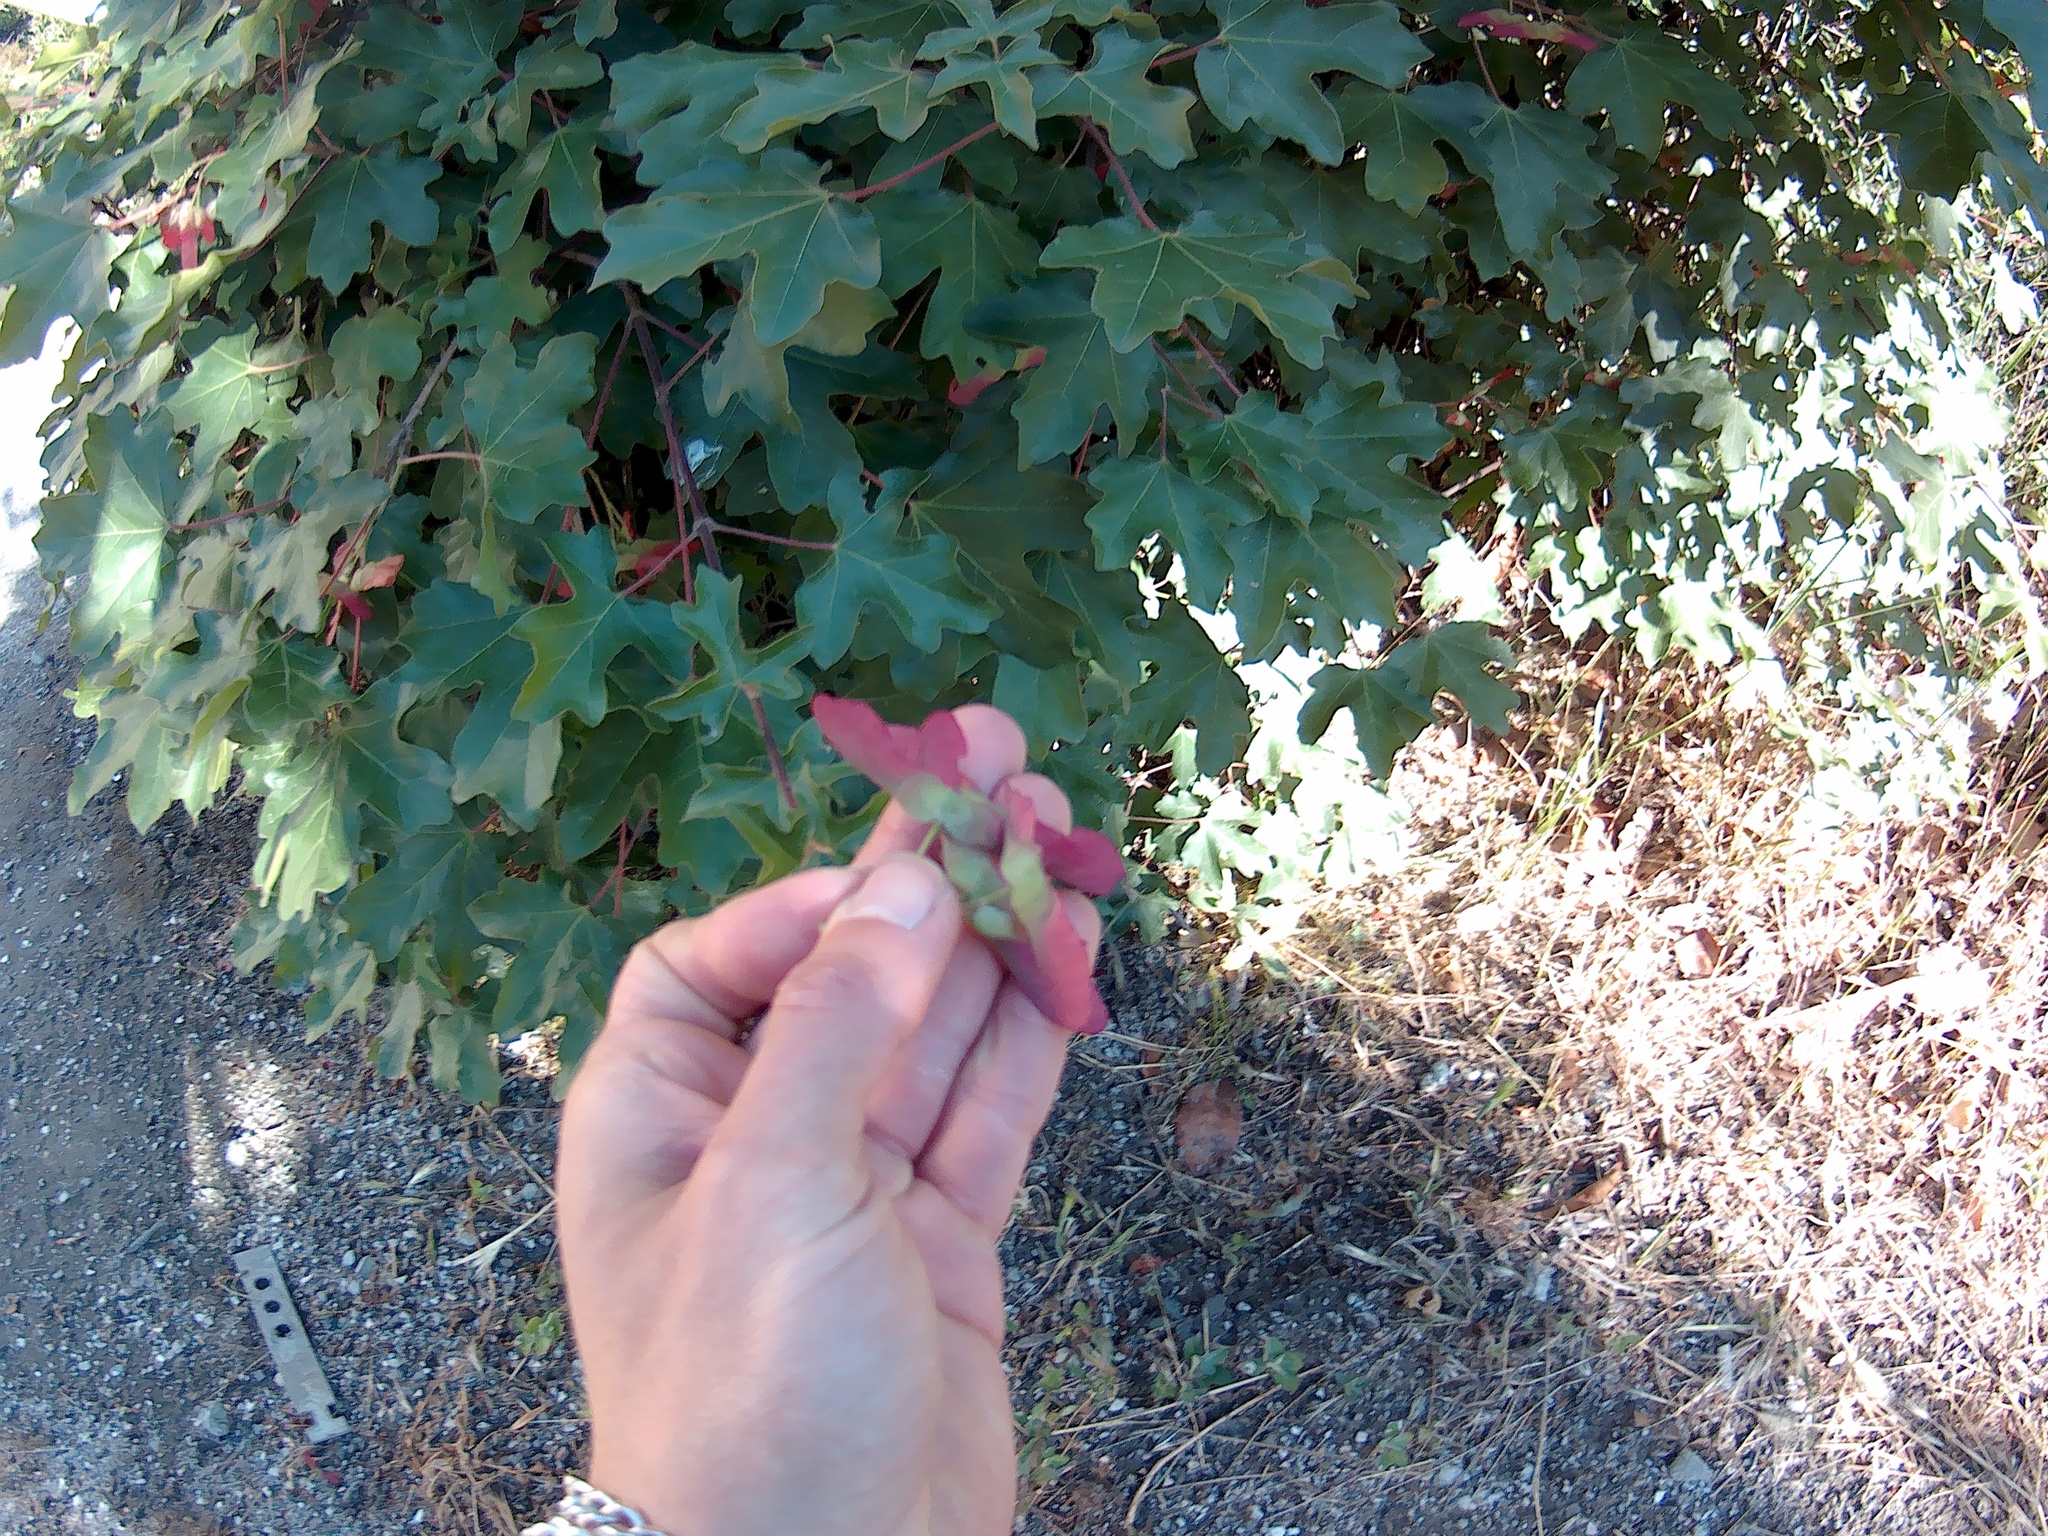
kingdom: Plantae
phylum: Tracheophyta
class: Magnoliopsida
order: Sapindales
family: Sapindaceae
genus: Acer
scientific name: Acer campestre
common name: Field maple
